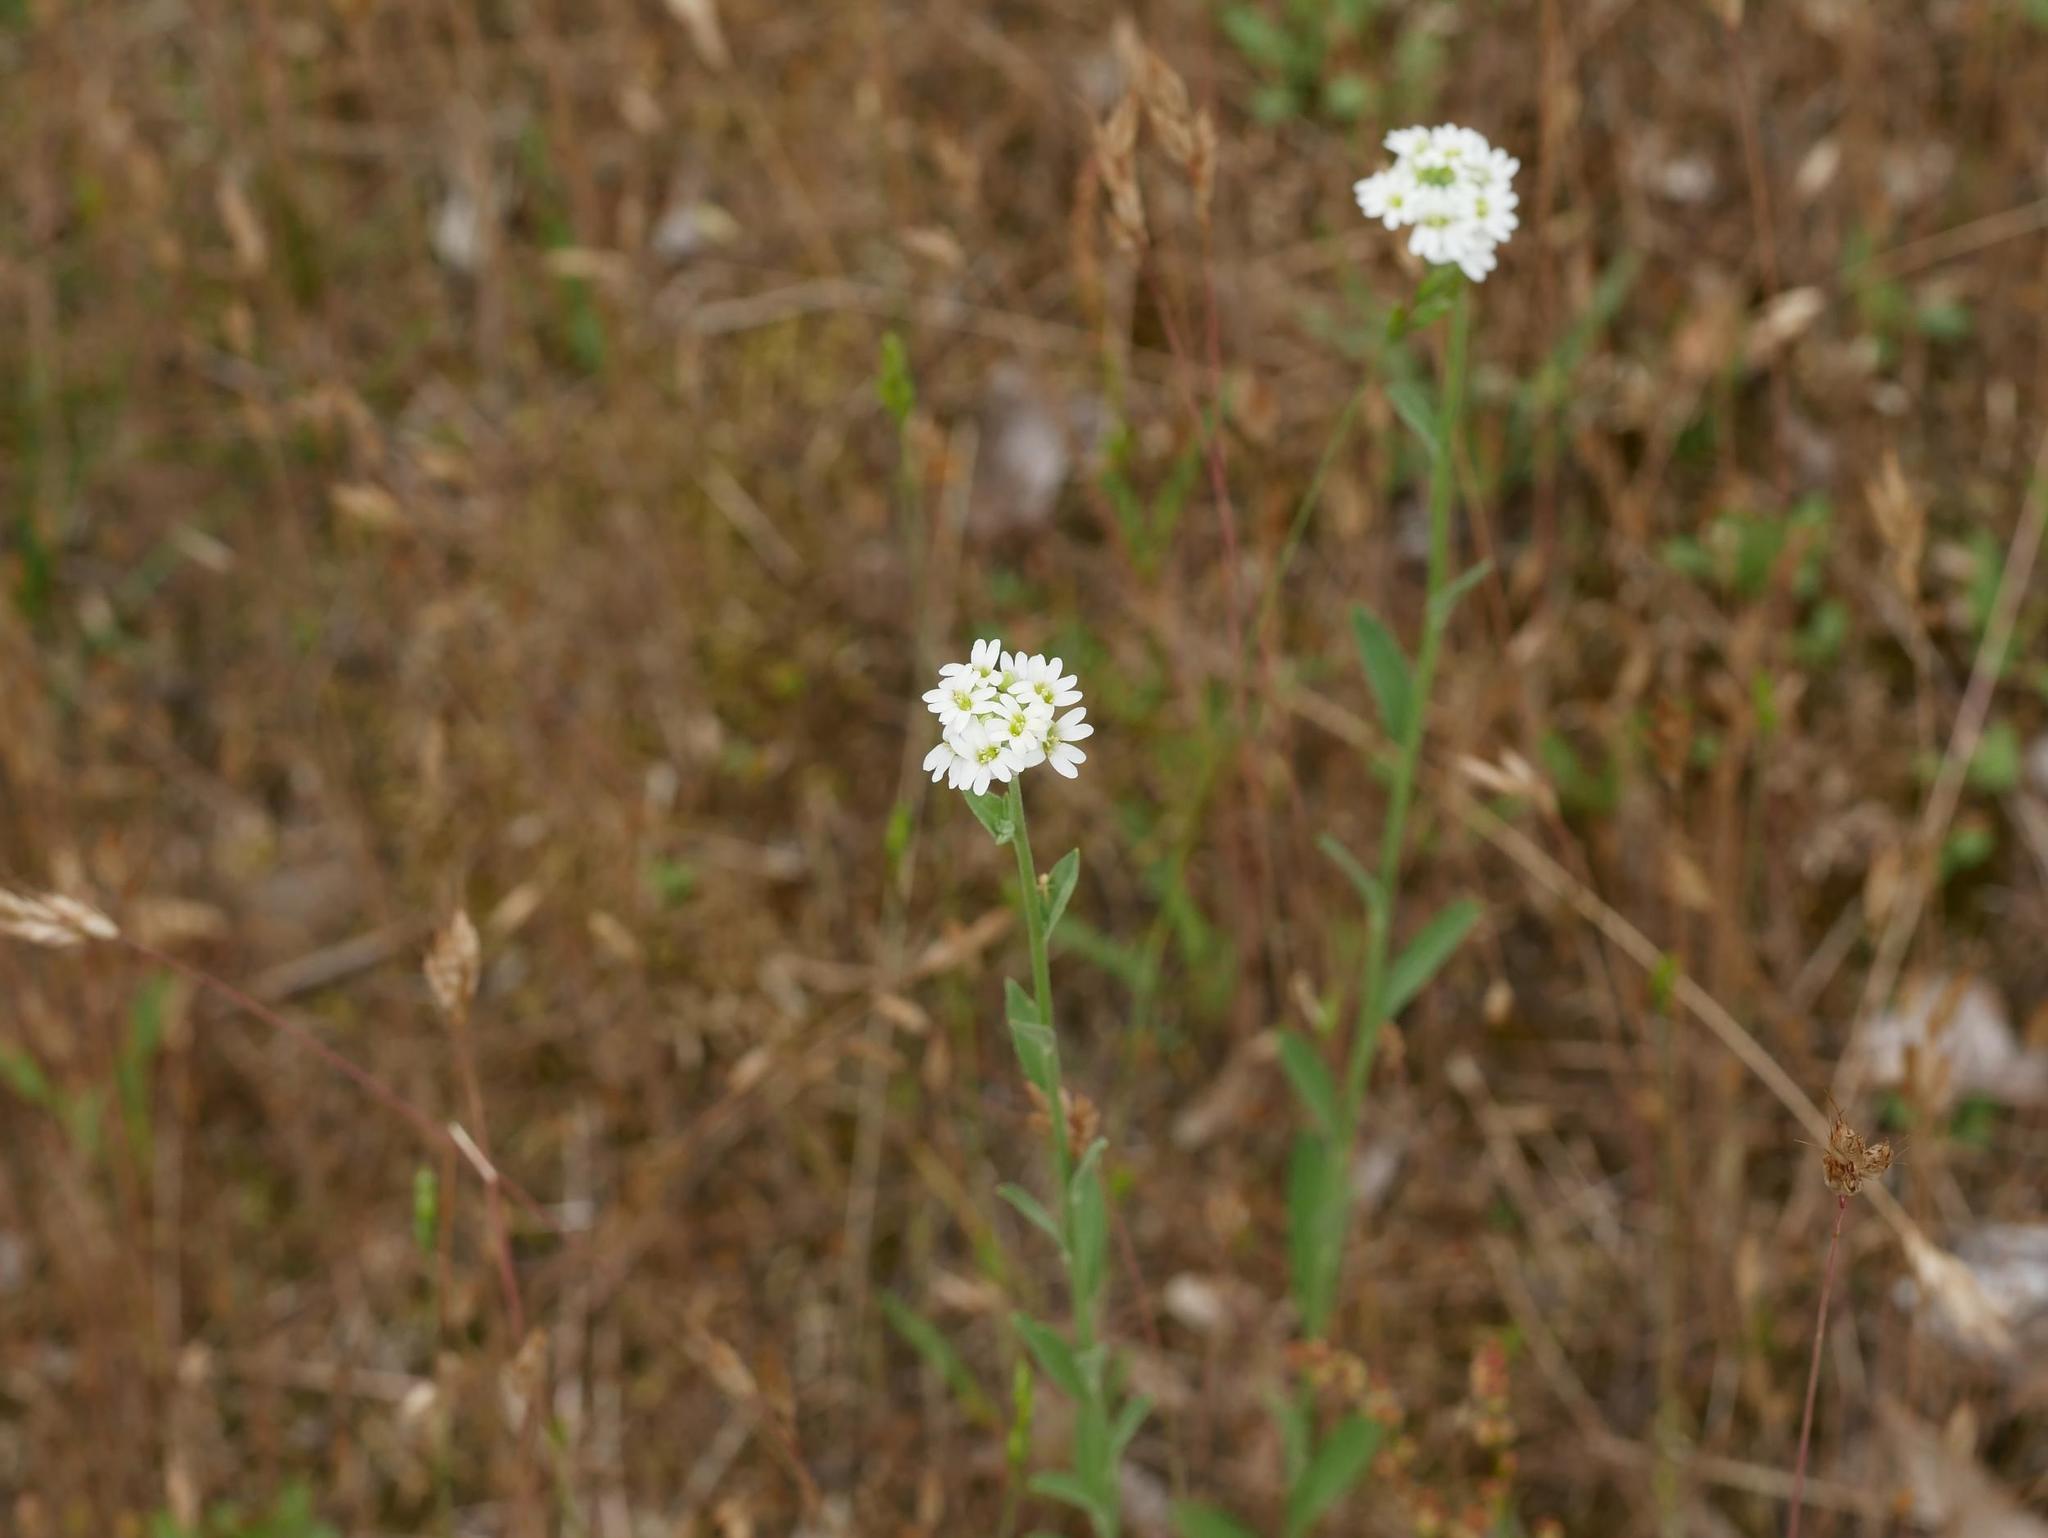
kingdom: Plantae
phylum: Tracheophyta
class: Magnoliopsida
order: Brassicales
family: Brassicaceae
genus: Berteroa
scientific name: Berteroa incana
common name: Hoary alison
